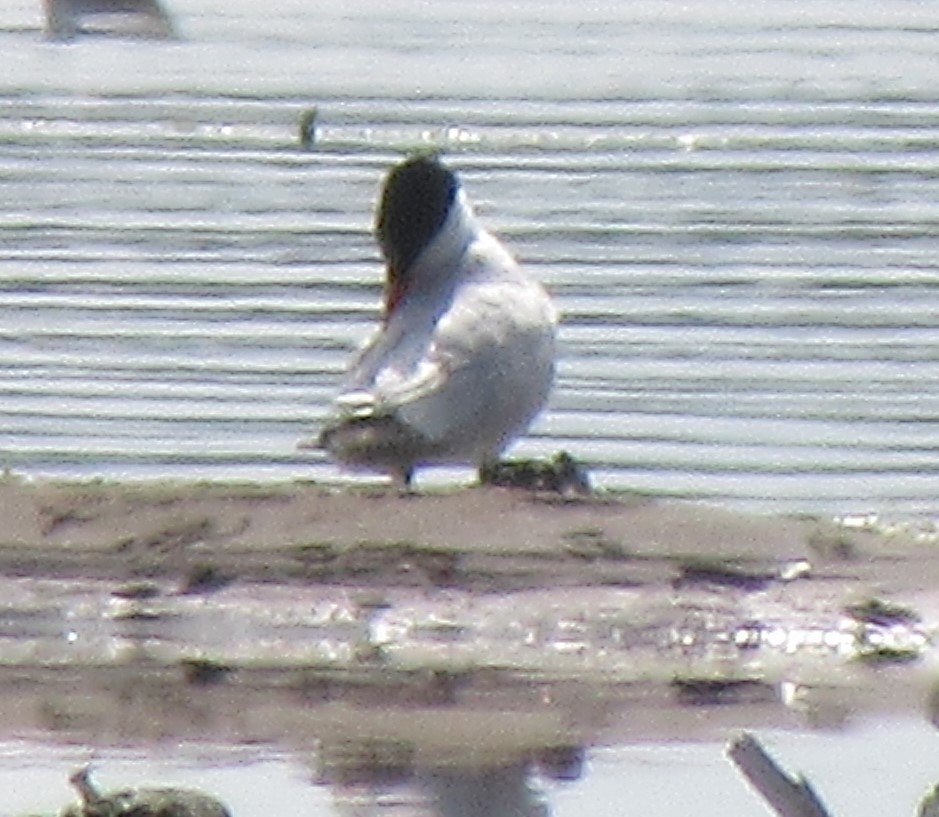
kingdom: Animalia
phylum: Chordata
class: Aves
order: Charadriiformes
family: Laridae
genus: Hydroprogne
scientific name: Hydroprogne caspia
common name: Caspian tern
